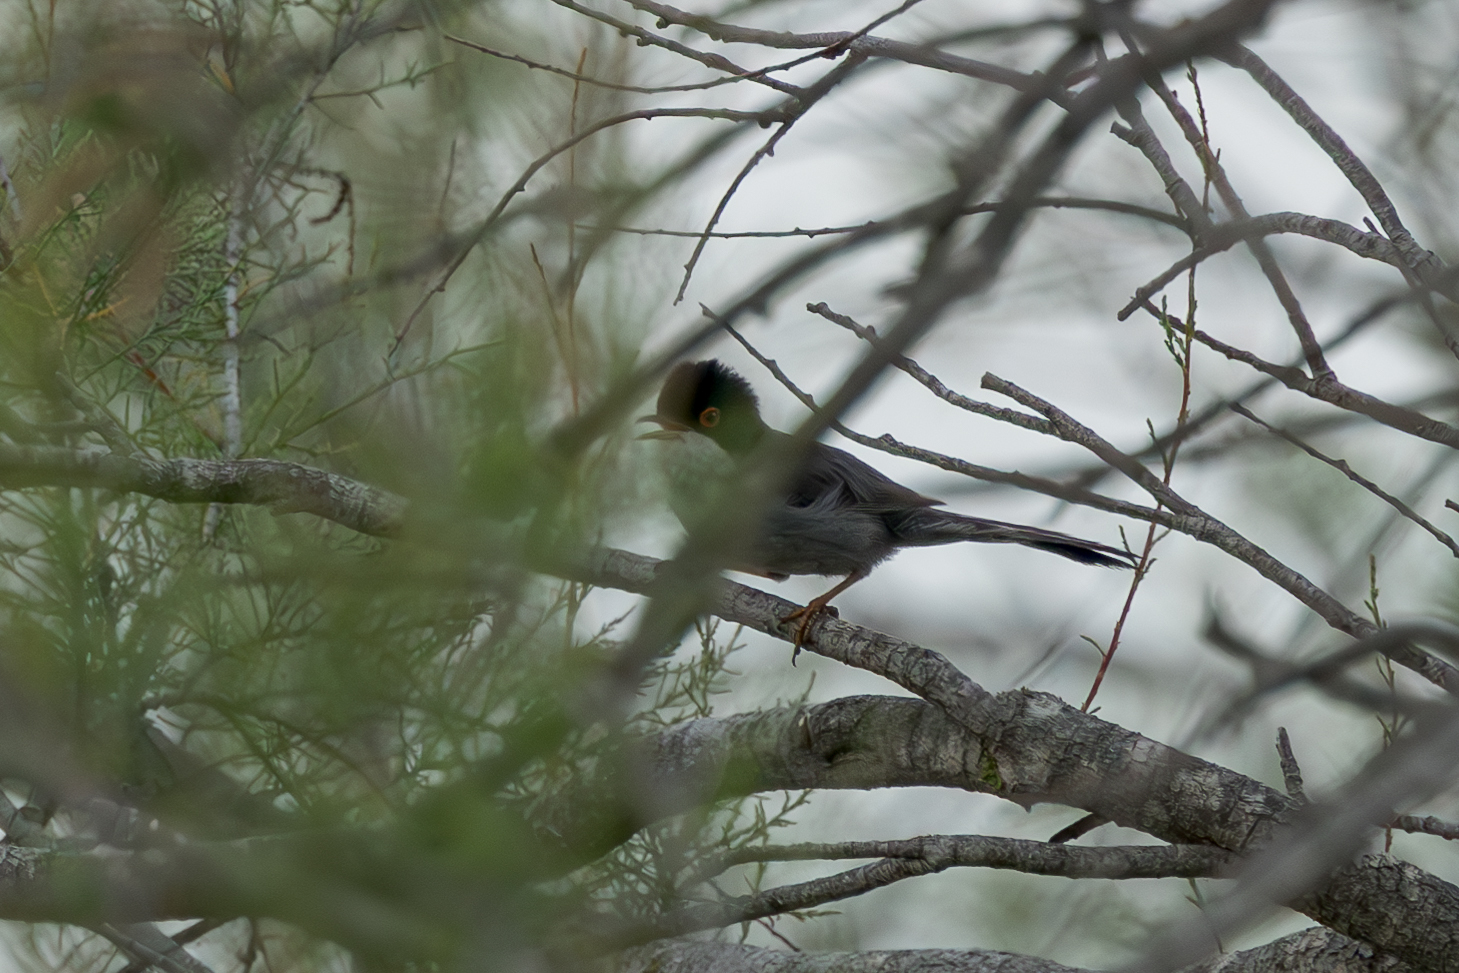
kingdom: Animalia
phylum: Chordata
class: Aves
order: Passeriformes
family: Sylviidae
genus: Curruca
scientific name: Curruca melanocephala
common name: Sardinian warbler
